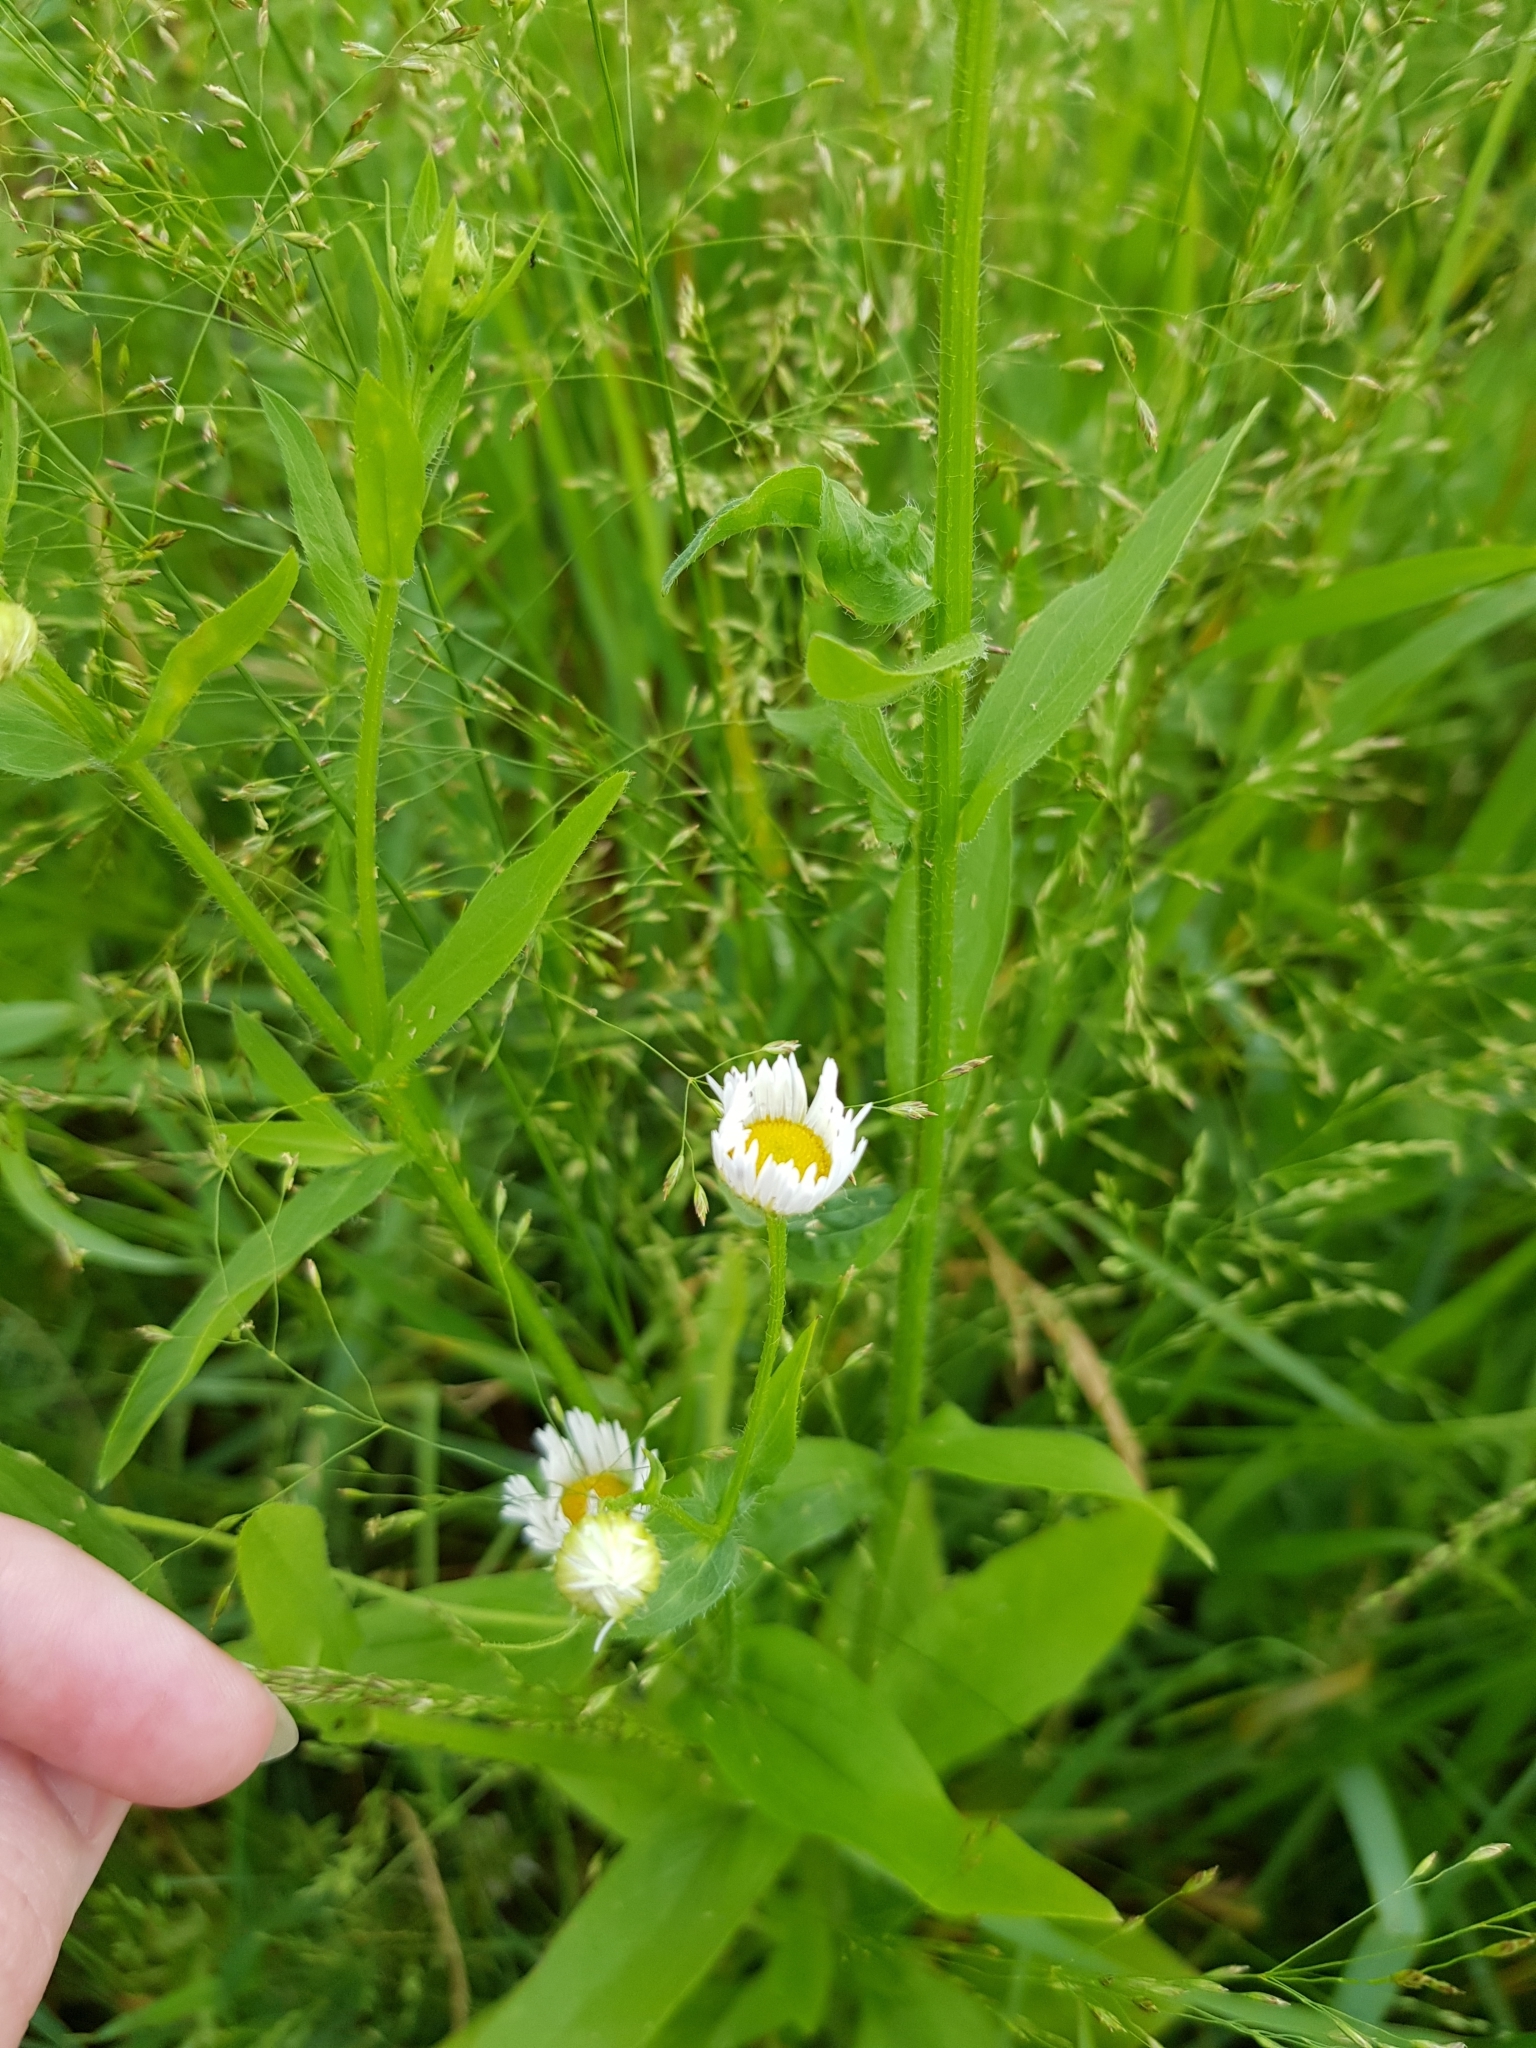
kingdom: Plantae
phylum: Tracheophyta
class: Magnoliopsida
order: Asterales
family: Asteraceae
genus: Erigeron
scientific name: Erigeron annuus
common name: Tall fleabane
